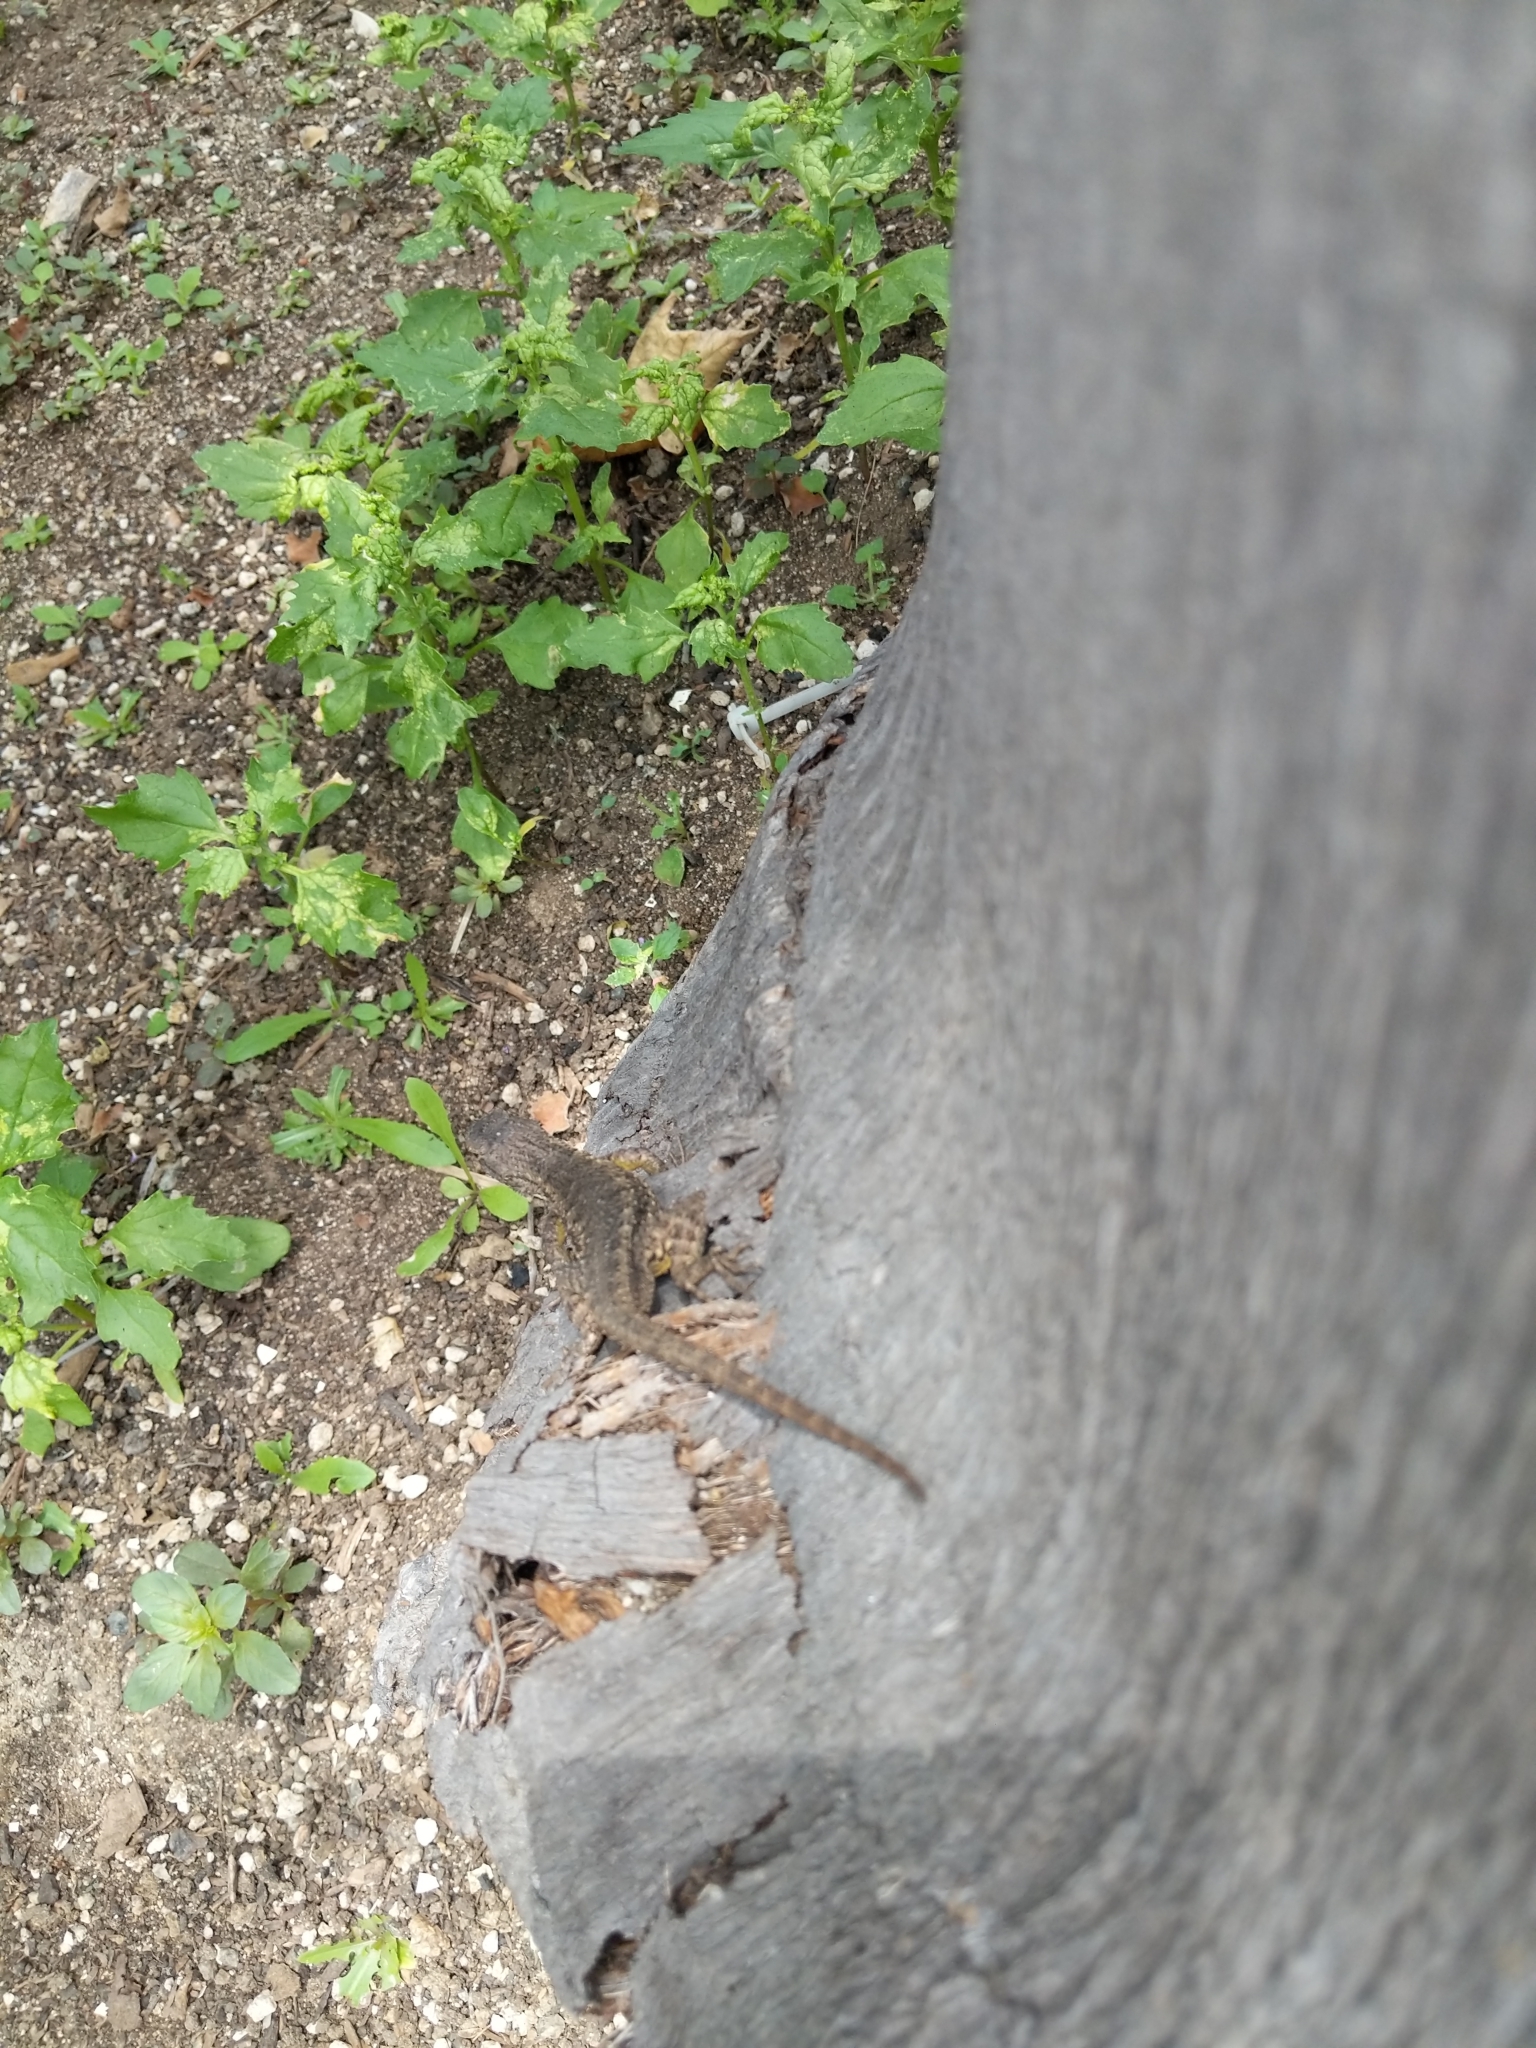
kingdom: Animalia
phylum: Chordata
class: Squamata
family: Phrynosomatidae
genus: Sceloporus
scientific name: Sceloporus occidentalis
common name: Western fence lizard
